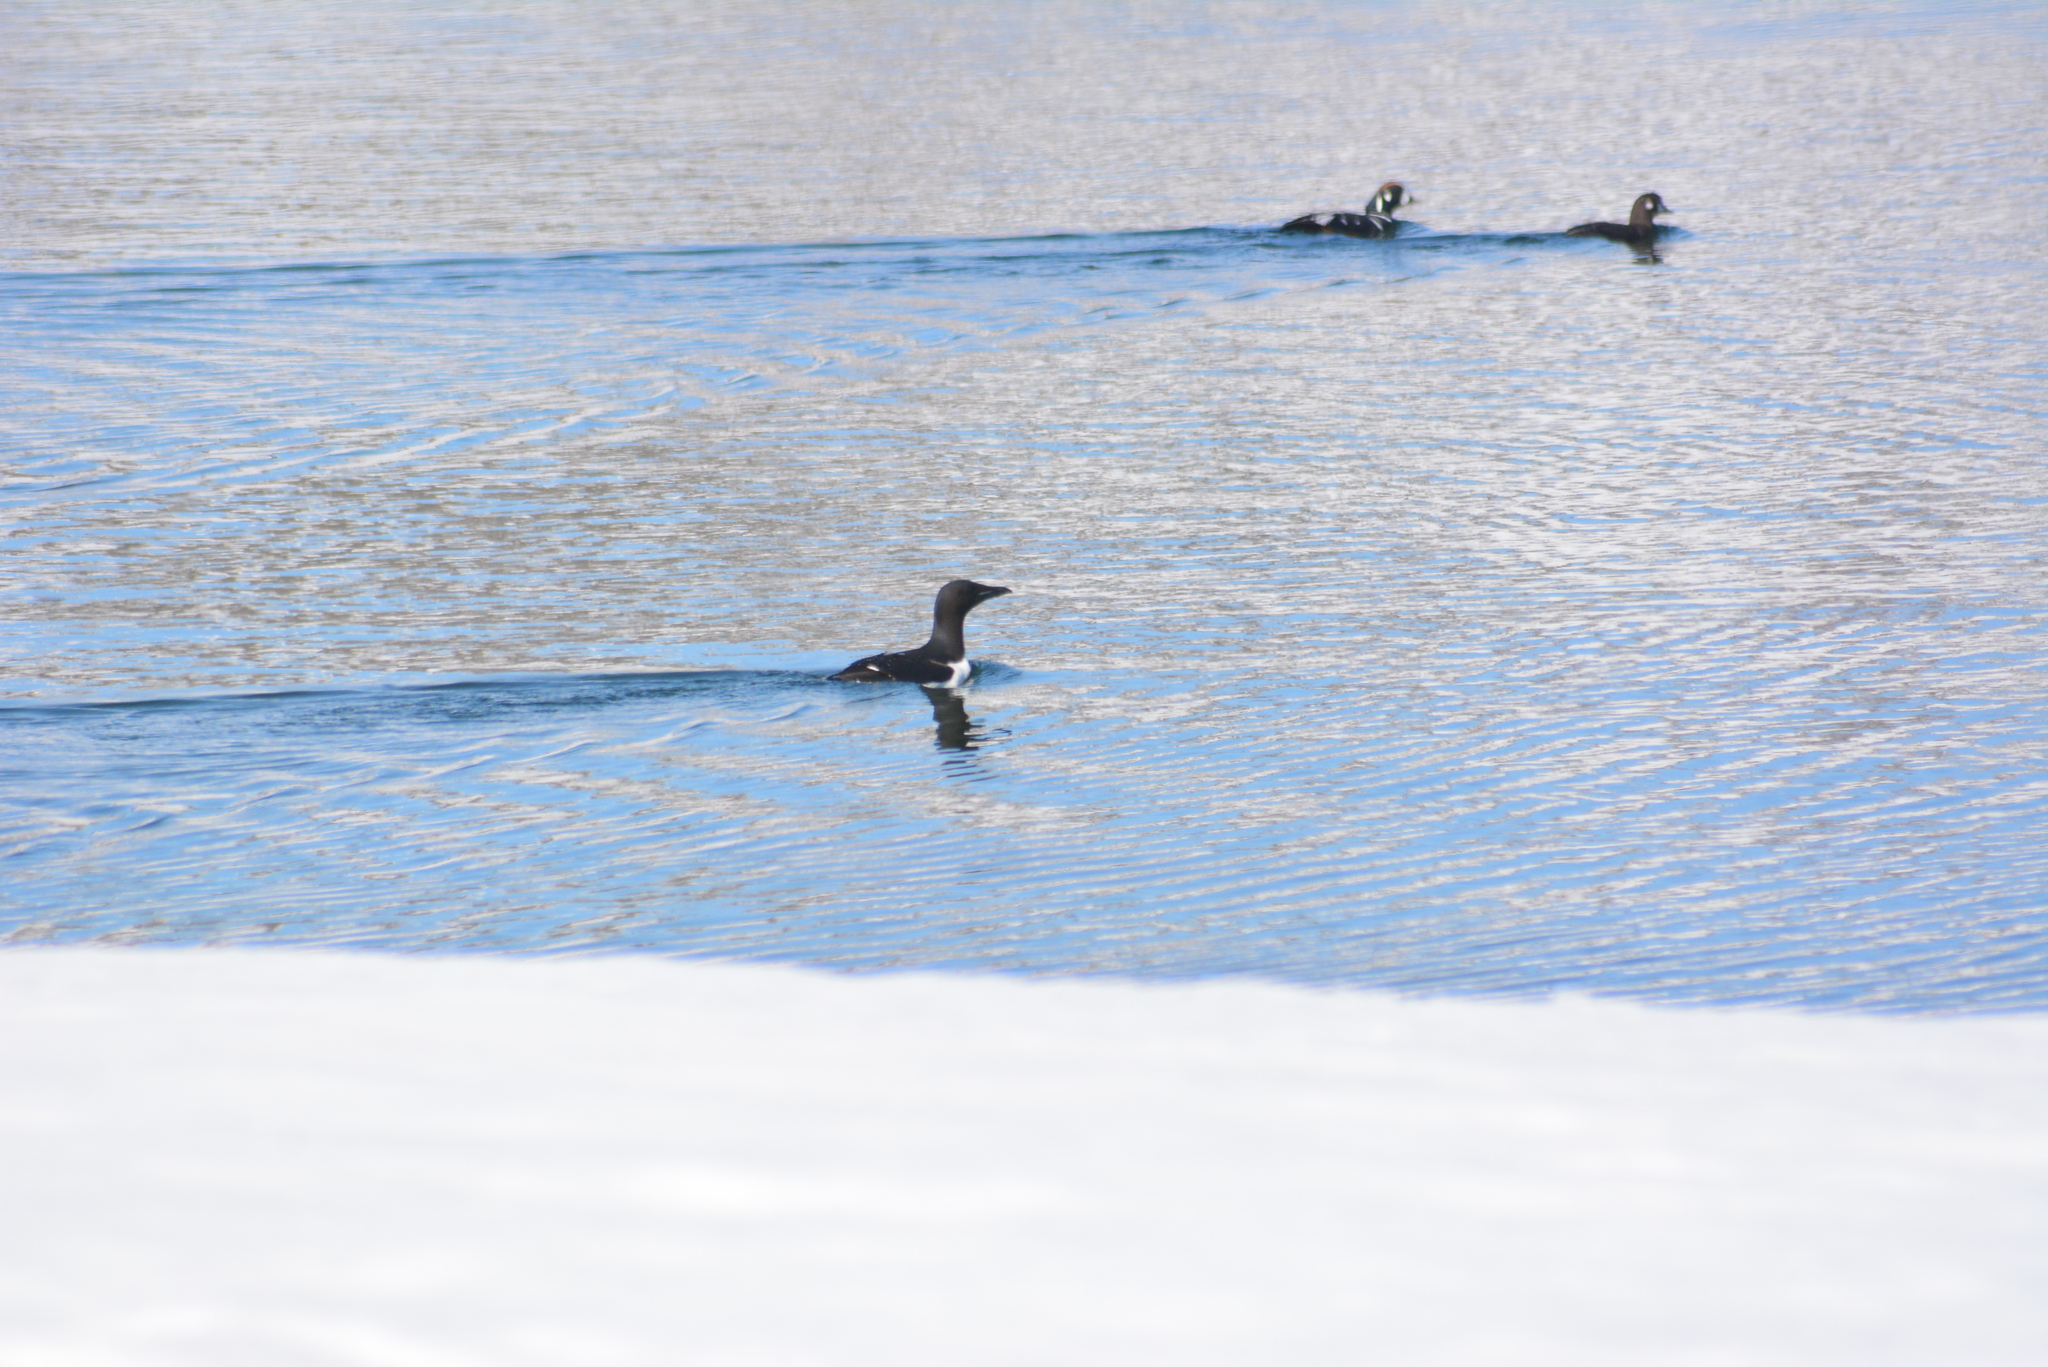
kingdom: Animalia
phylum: Chordata
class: Aves
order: Charadriiformes
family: Alcidae
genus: Uria
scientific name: Uria lomvia
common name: Thick-billed murre
